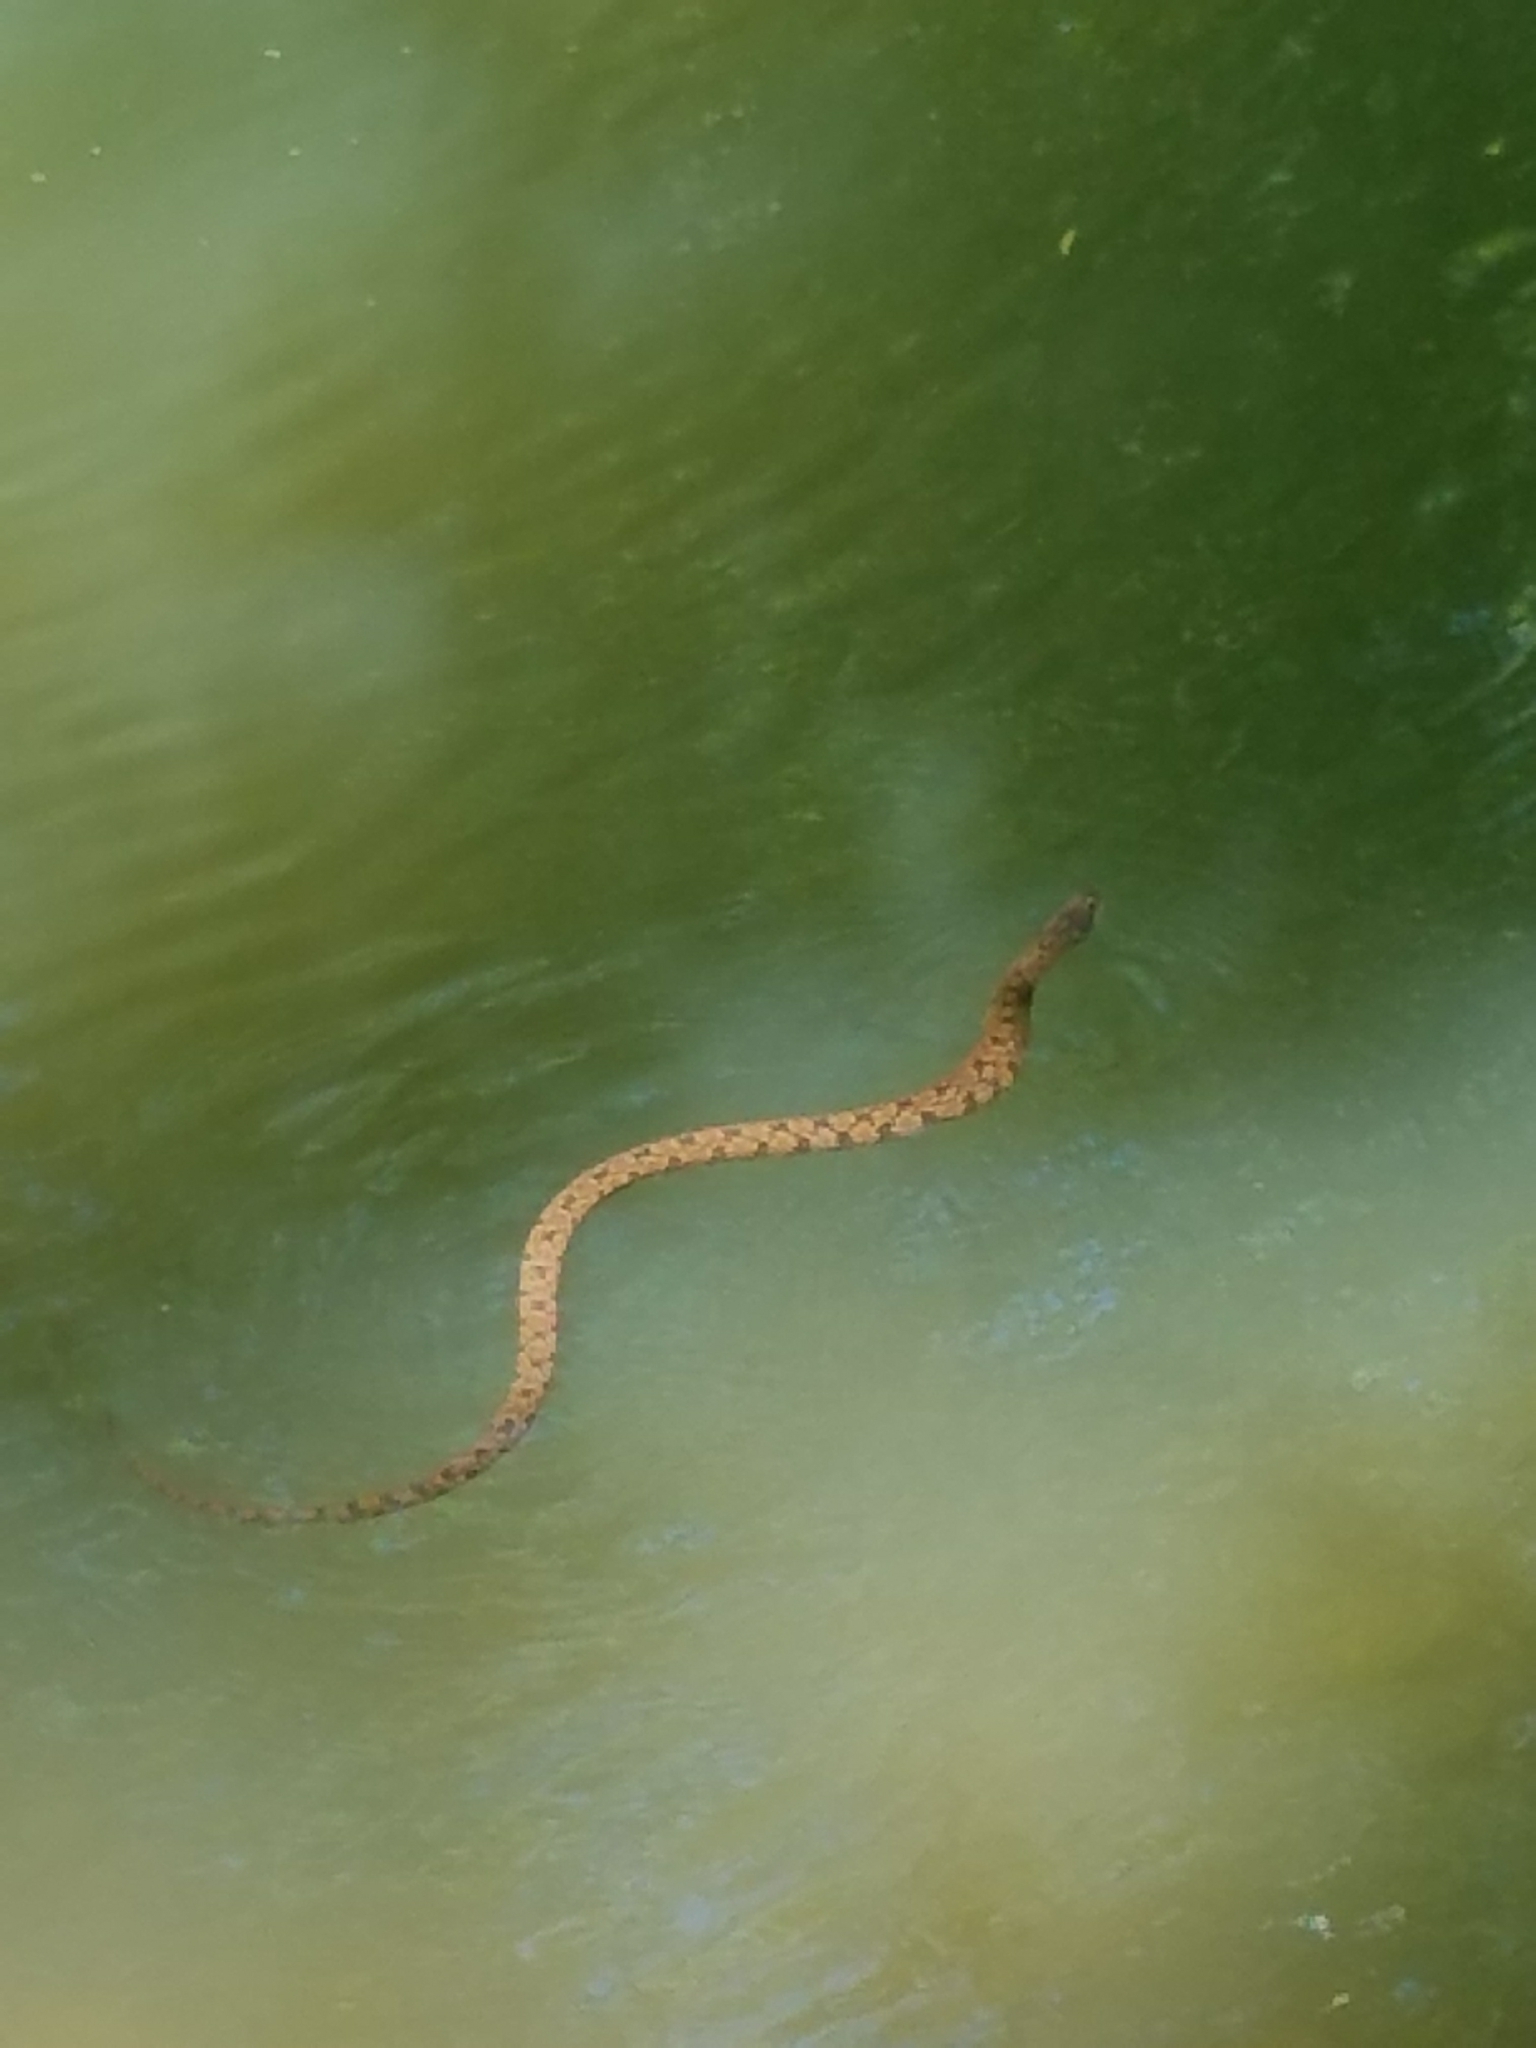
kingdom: Animalia
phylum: Chordata
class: Squamata
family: Colubridae
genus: Nerodia
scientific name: Nerodia rhombifer
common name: Diamondback water snake
